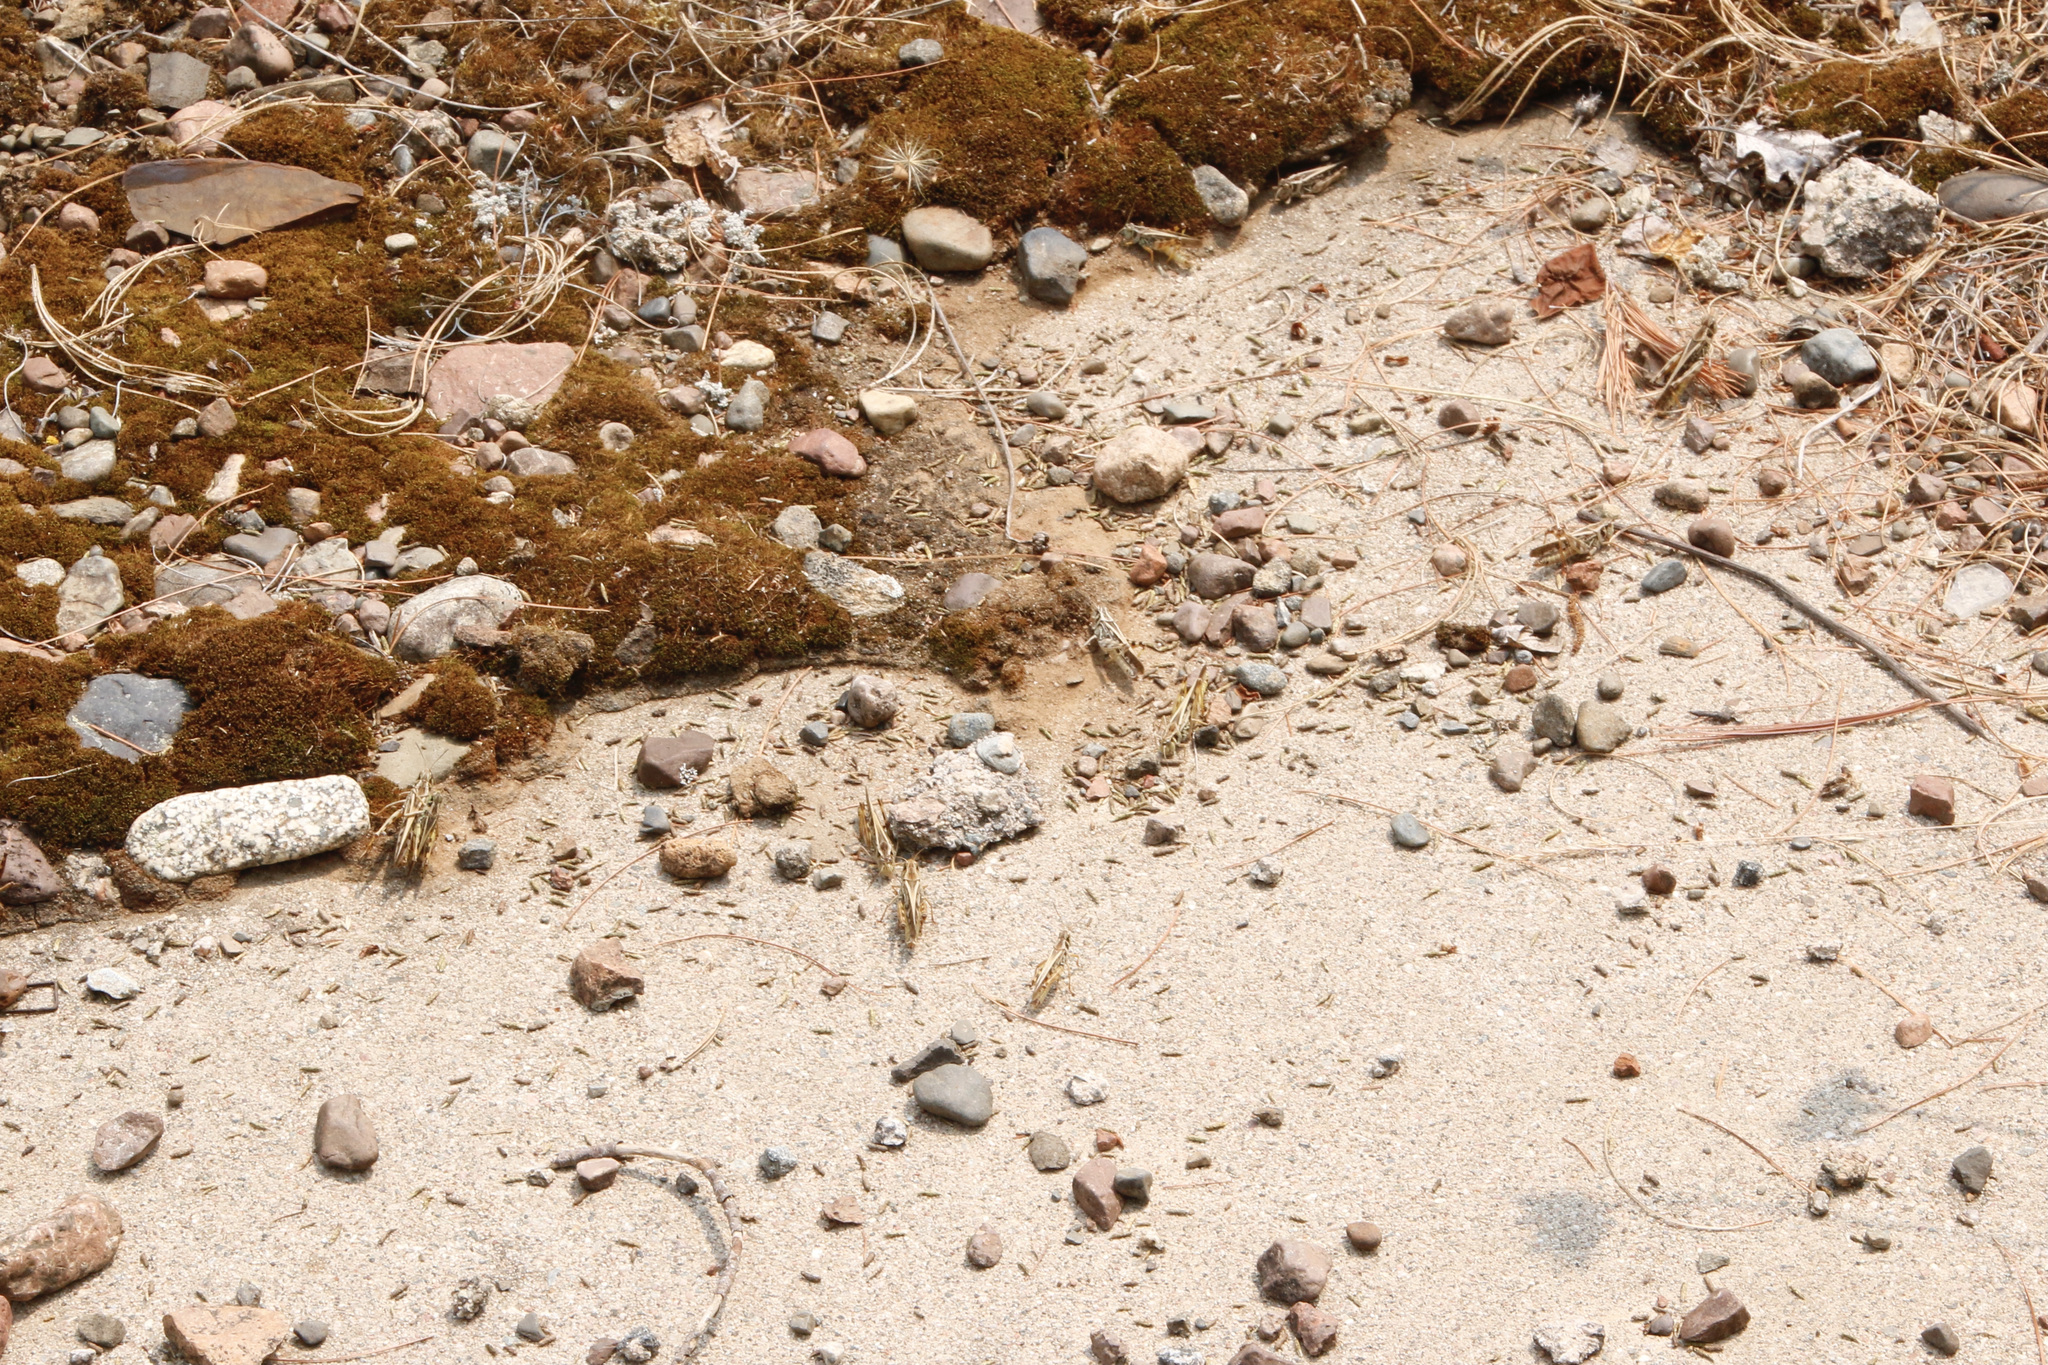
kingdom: Animalia
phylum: Arthropoda
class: Insecta
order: Orthoptera
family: Acrididae
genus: Camnula
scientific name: Camnula pellucida
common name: Clear-winged grasshopper
